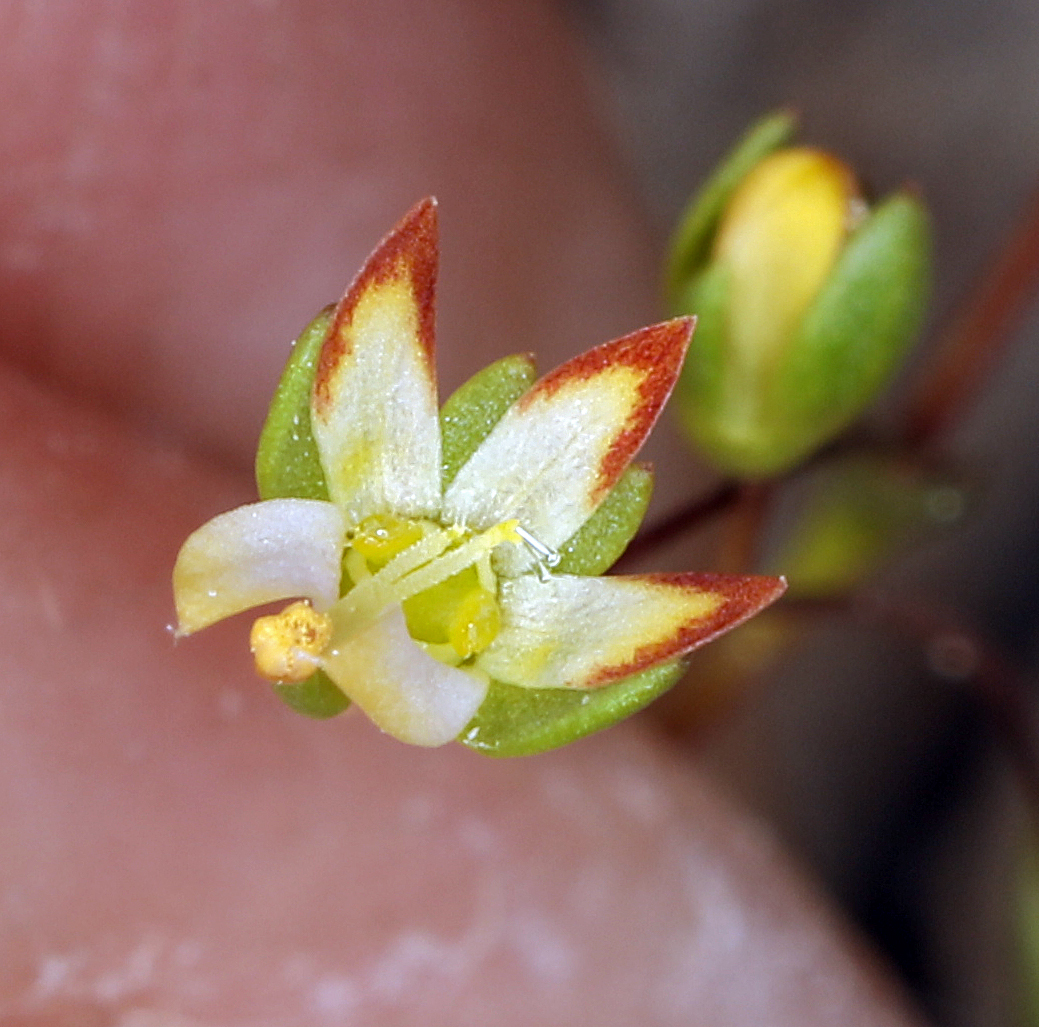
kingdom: Plantae
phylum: Tracheophyta
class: Magnoliopsida
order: Asterales
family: Campanulaceae
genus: Nemacladus
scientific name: Nemacladus morefieldii
